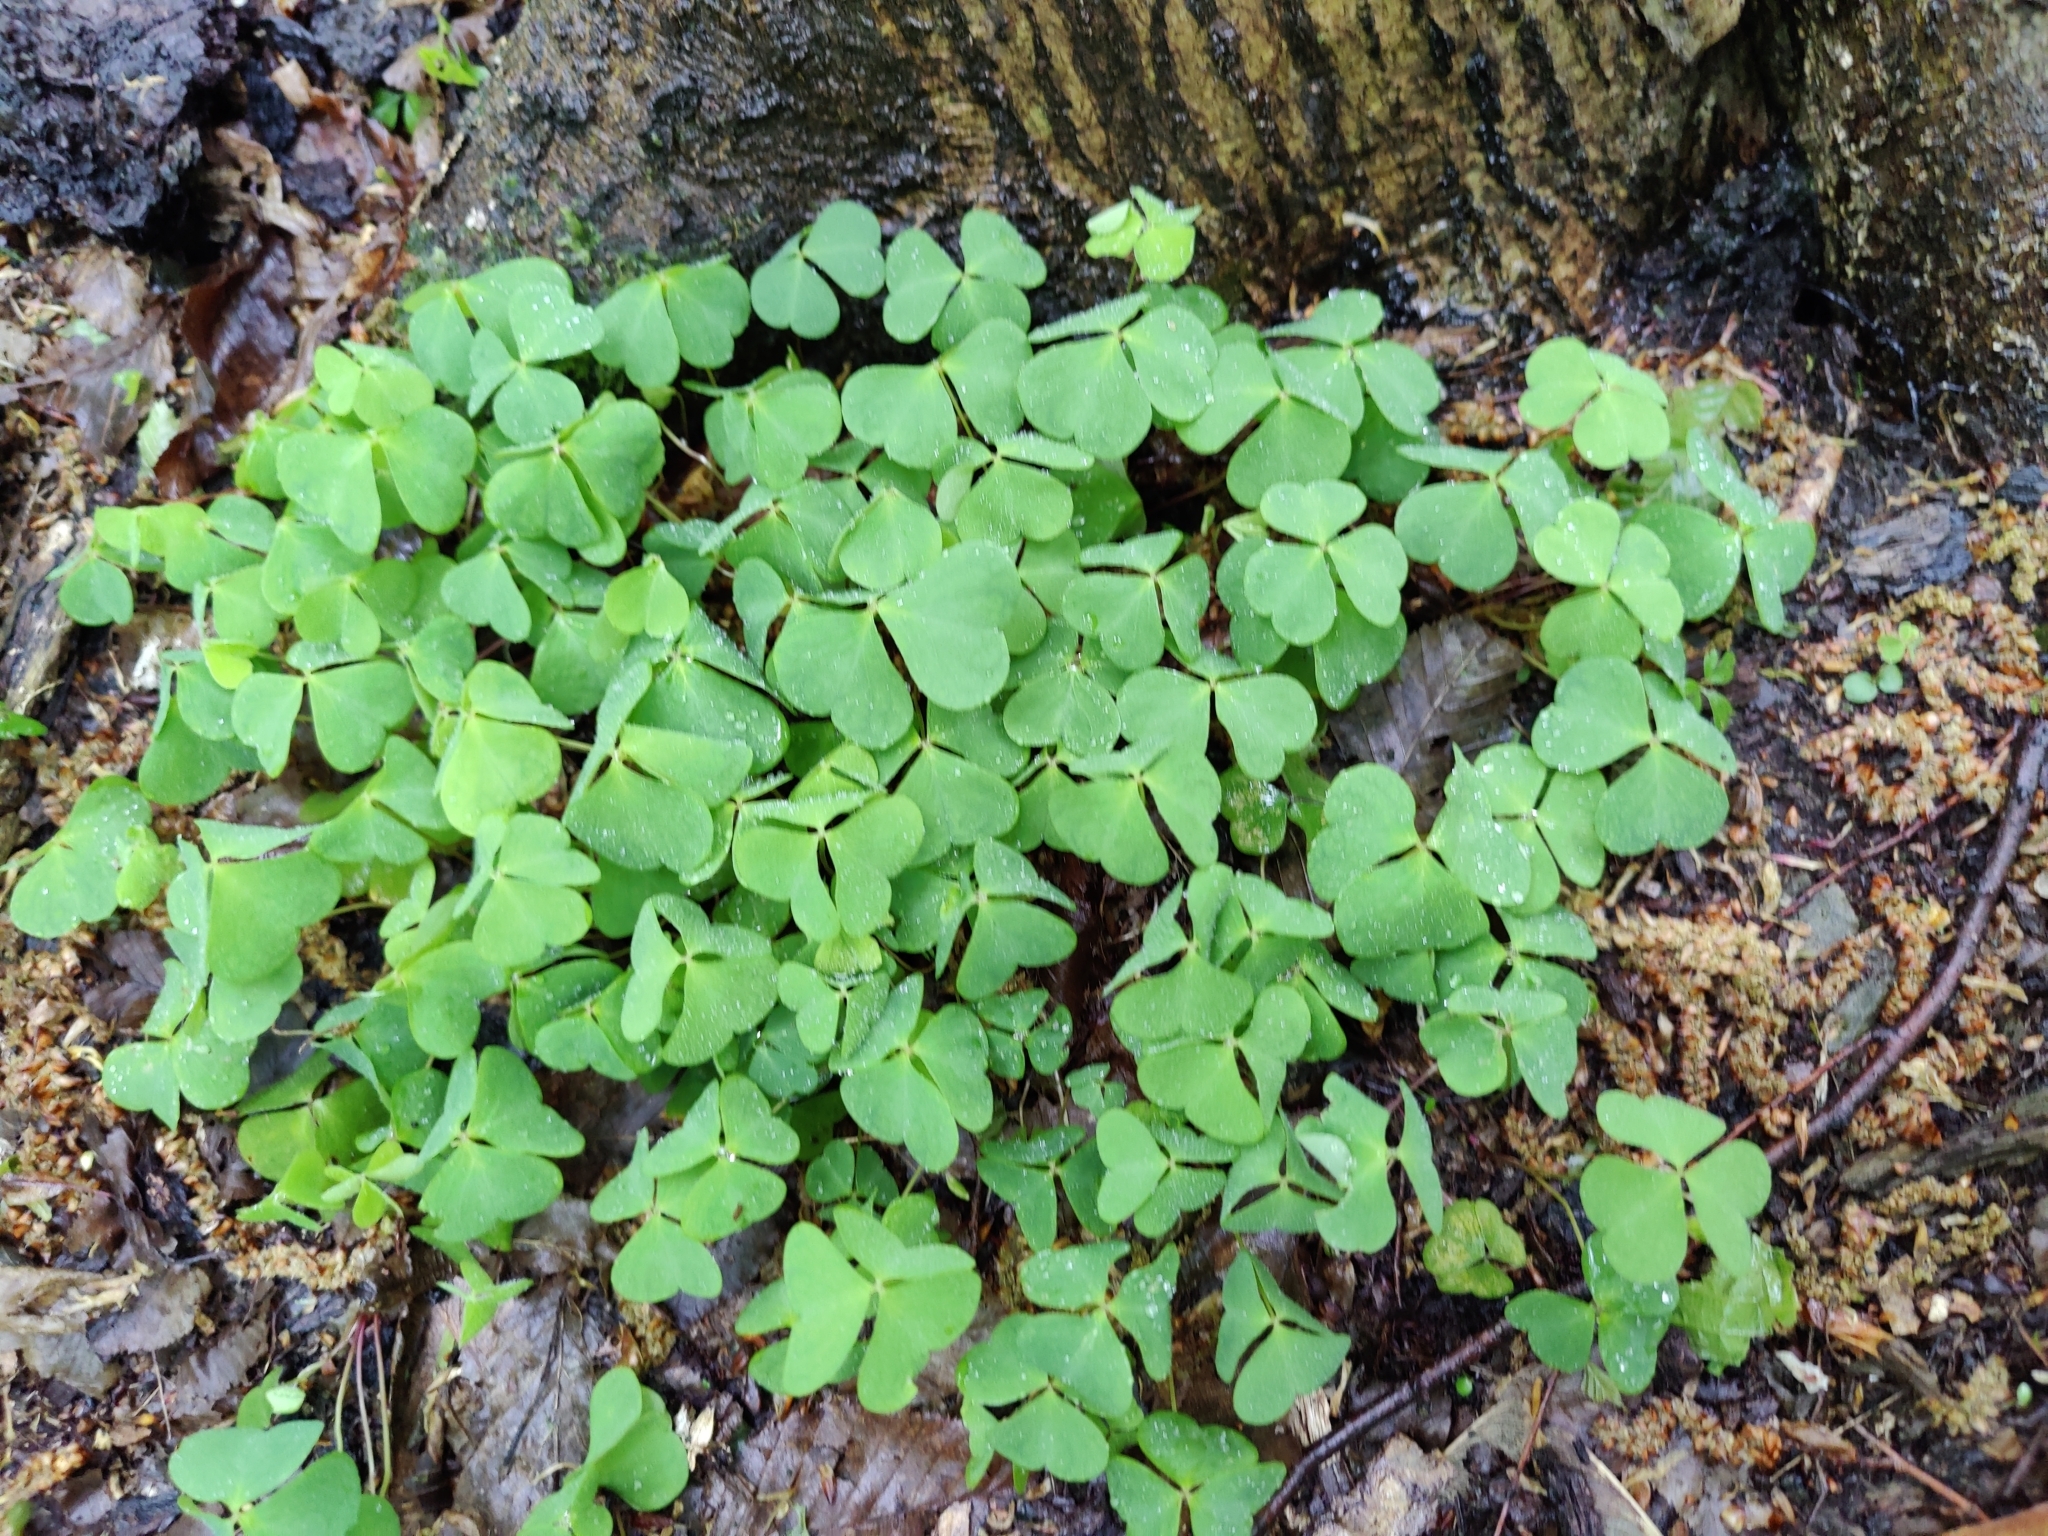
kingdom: Plantae
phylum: Tracheophyta
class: Magnoliopsida
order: Oxalidales
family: Oxalidaceae
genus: Oxalis
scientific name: Oxalis acetosella
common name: Wood-sorrel
